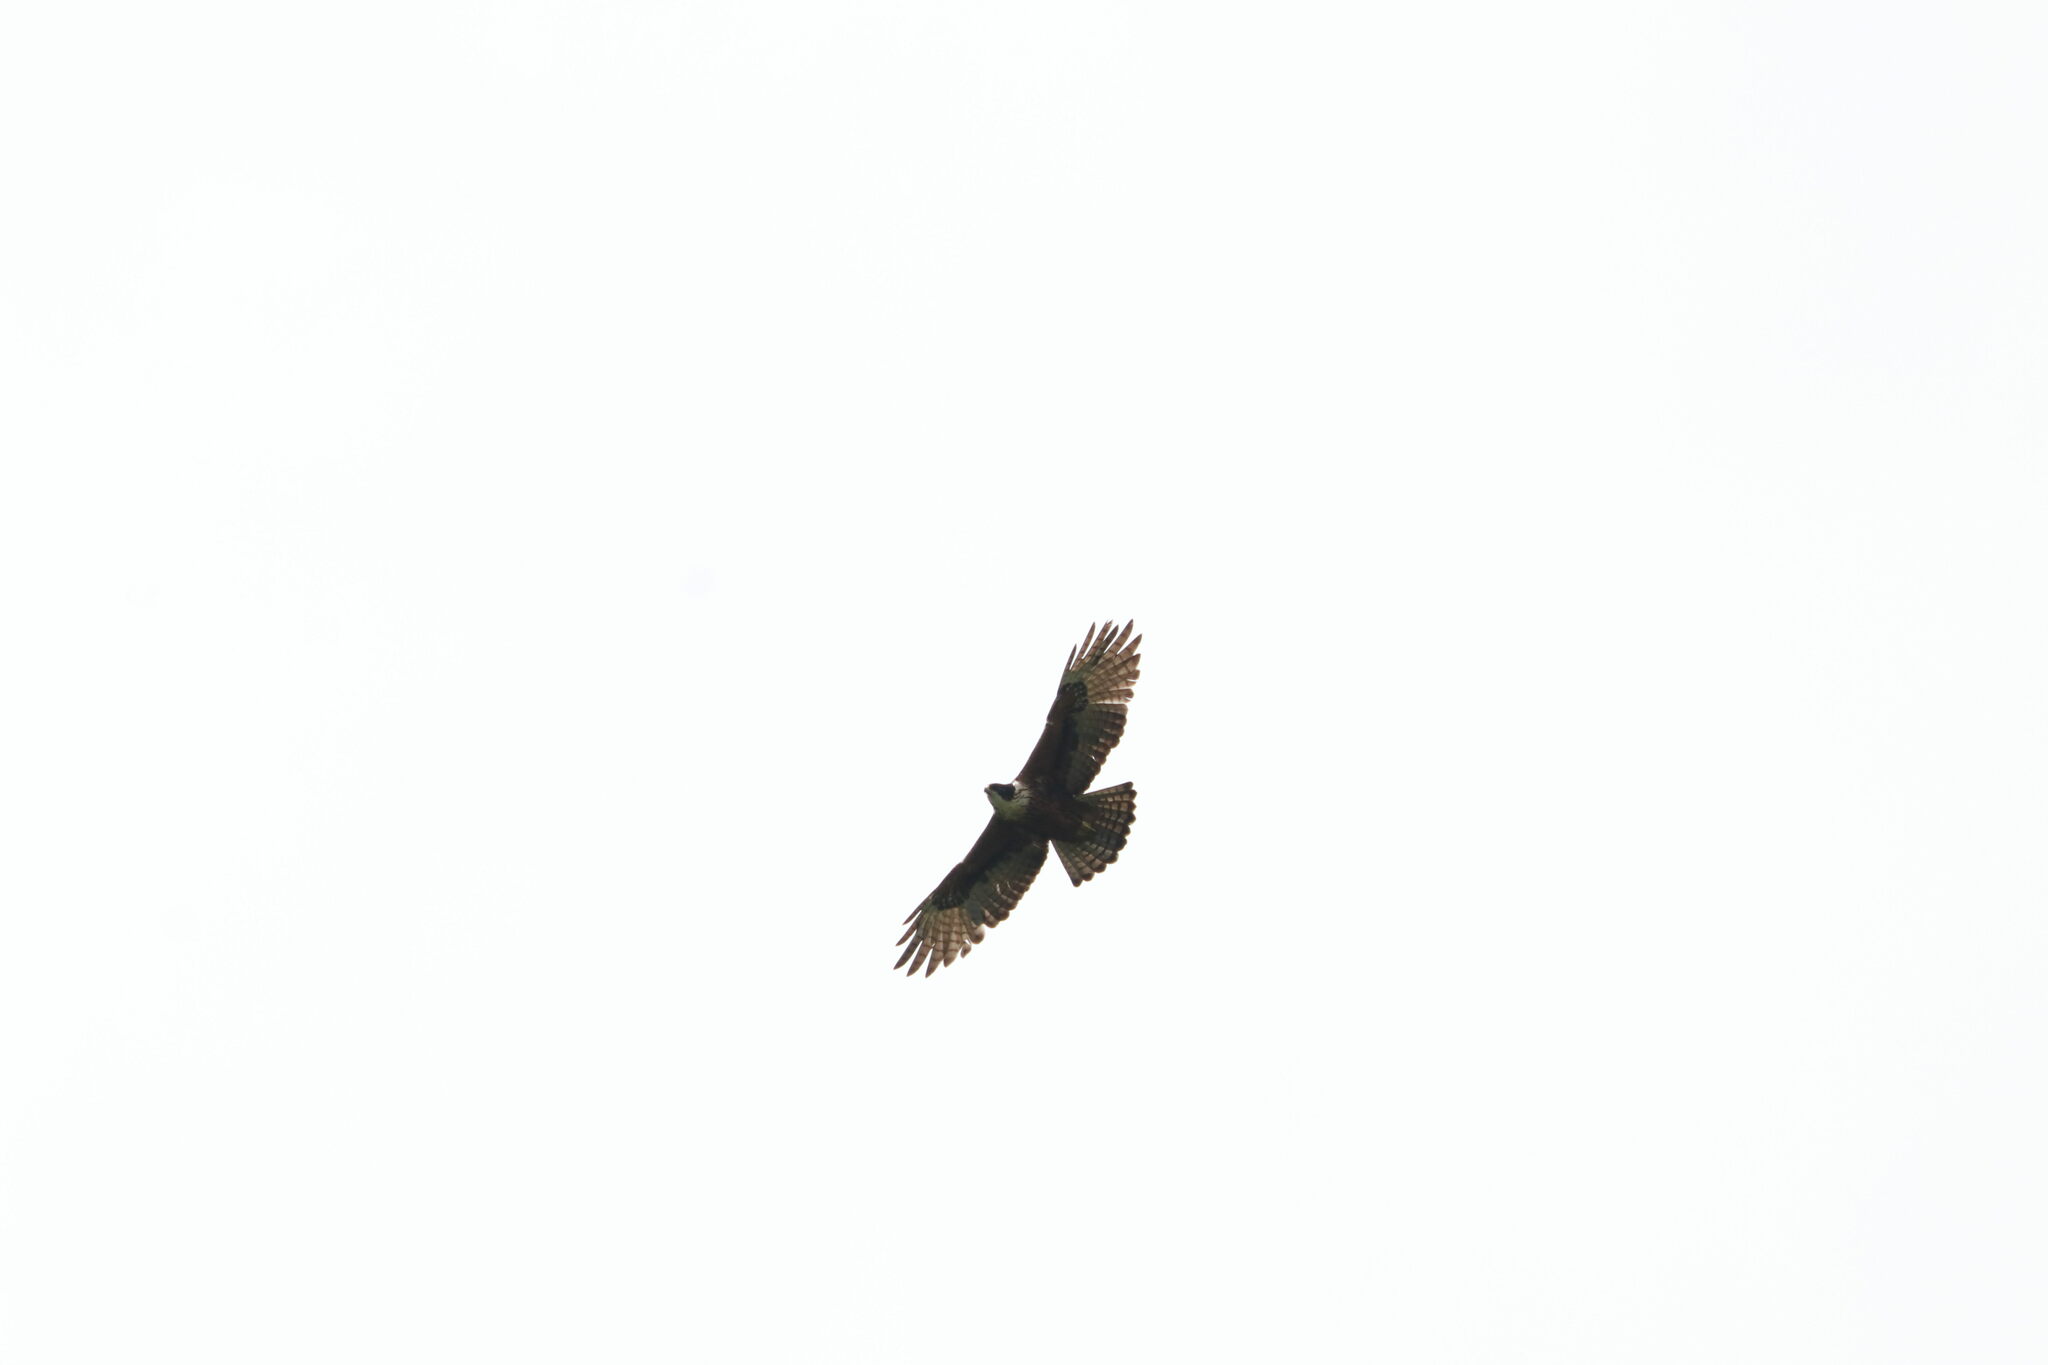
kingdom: Animalia
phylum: Chordata
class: Aves
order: Accipitriformes
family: Accipitridae
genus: Lophotriorchis
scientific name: Lophotriorchis kienerii
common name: Rufous-bellied eagle
